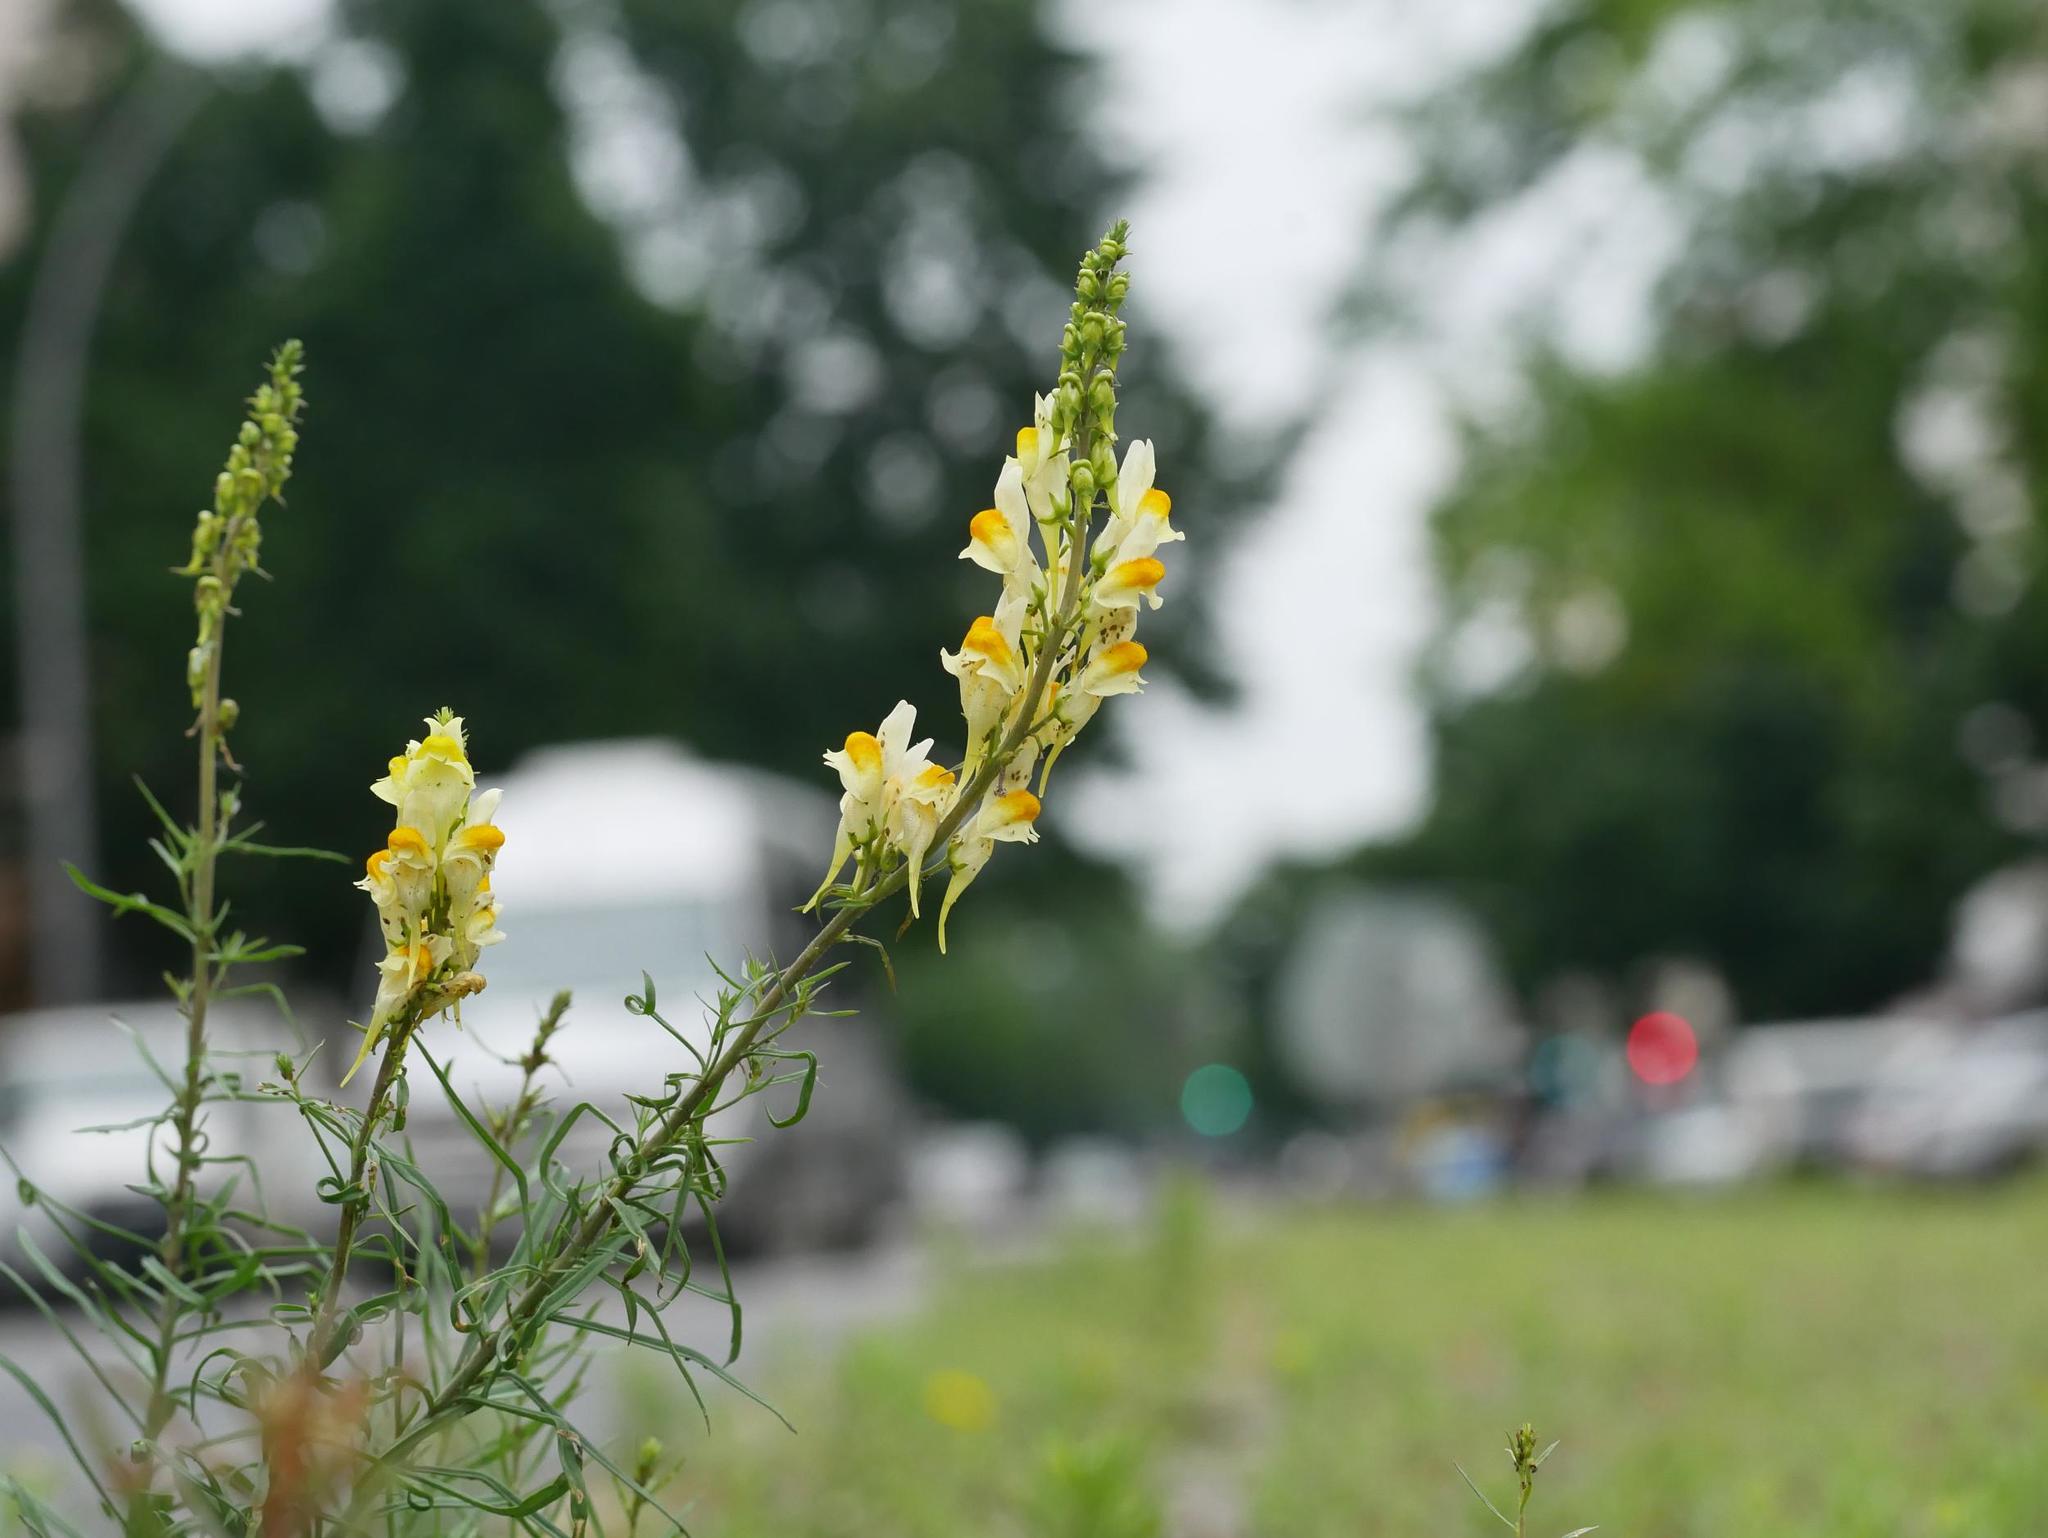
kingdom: Plantae
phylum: Tracheophyta
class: Magnoliopsida
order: Lamiales
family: Plantaginaceae
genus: Linaria
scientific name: Linaria vulgaris
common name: Butter and eggs
